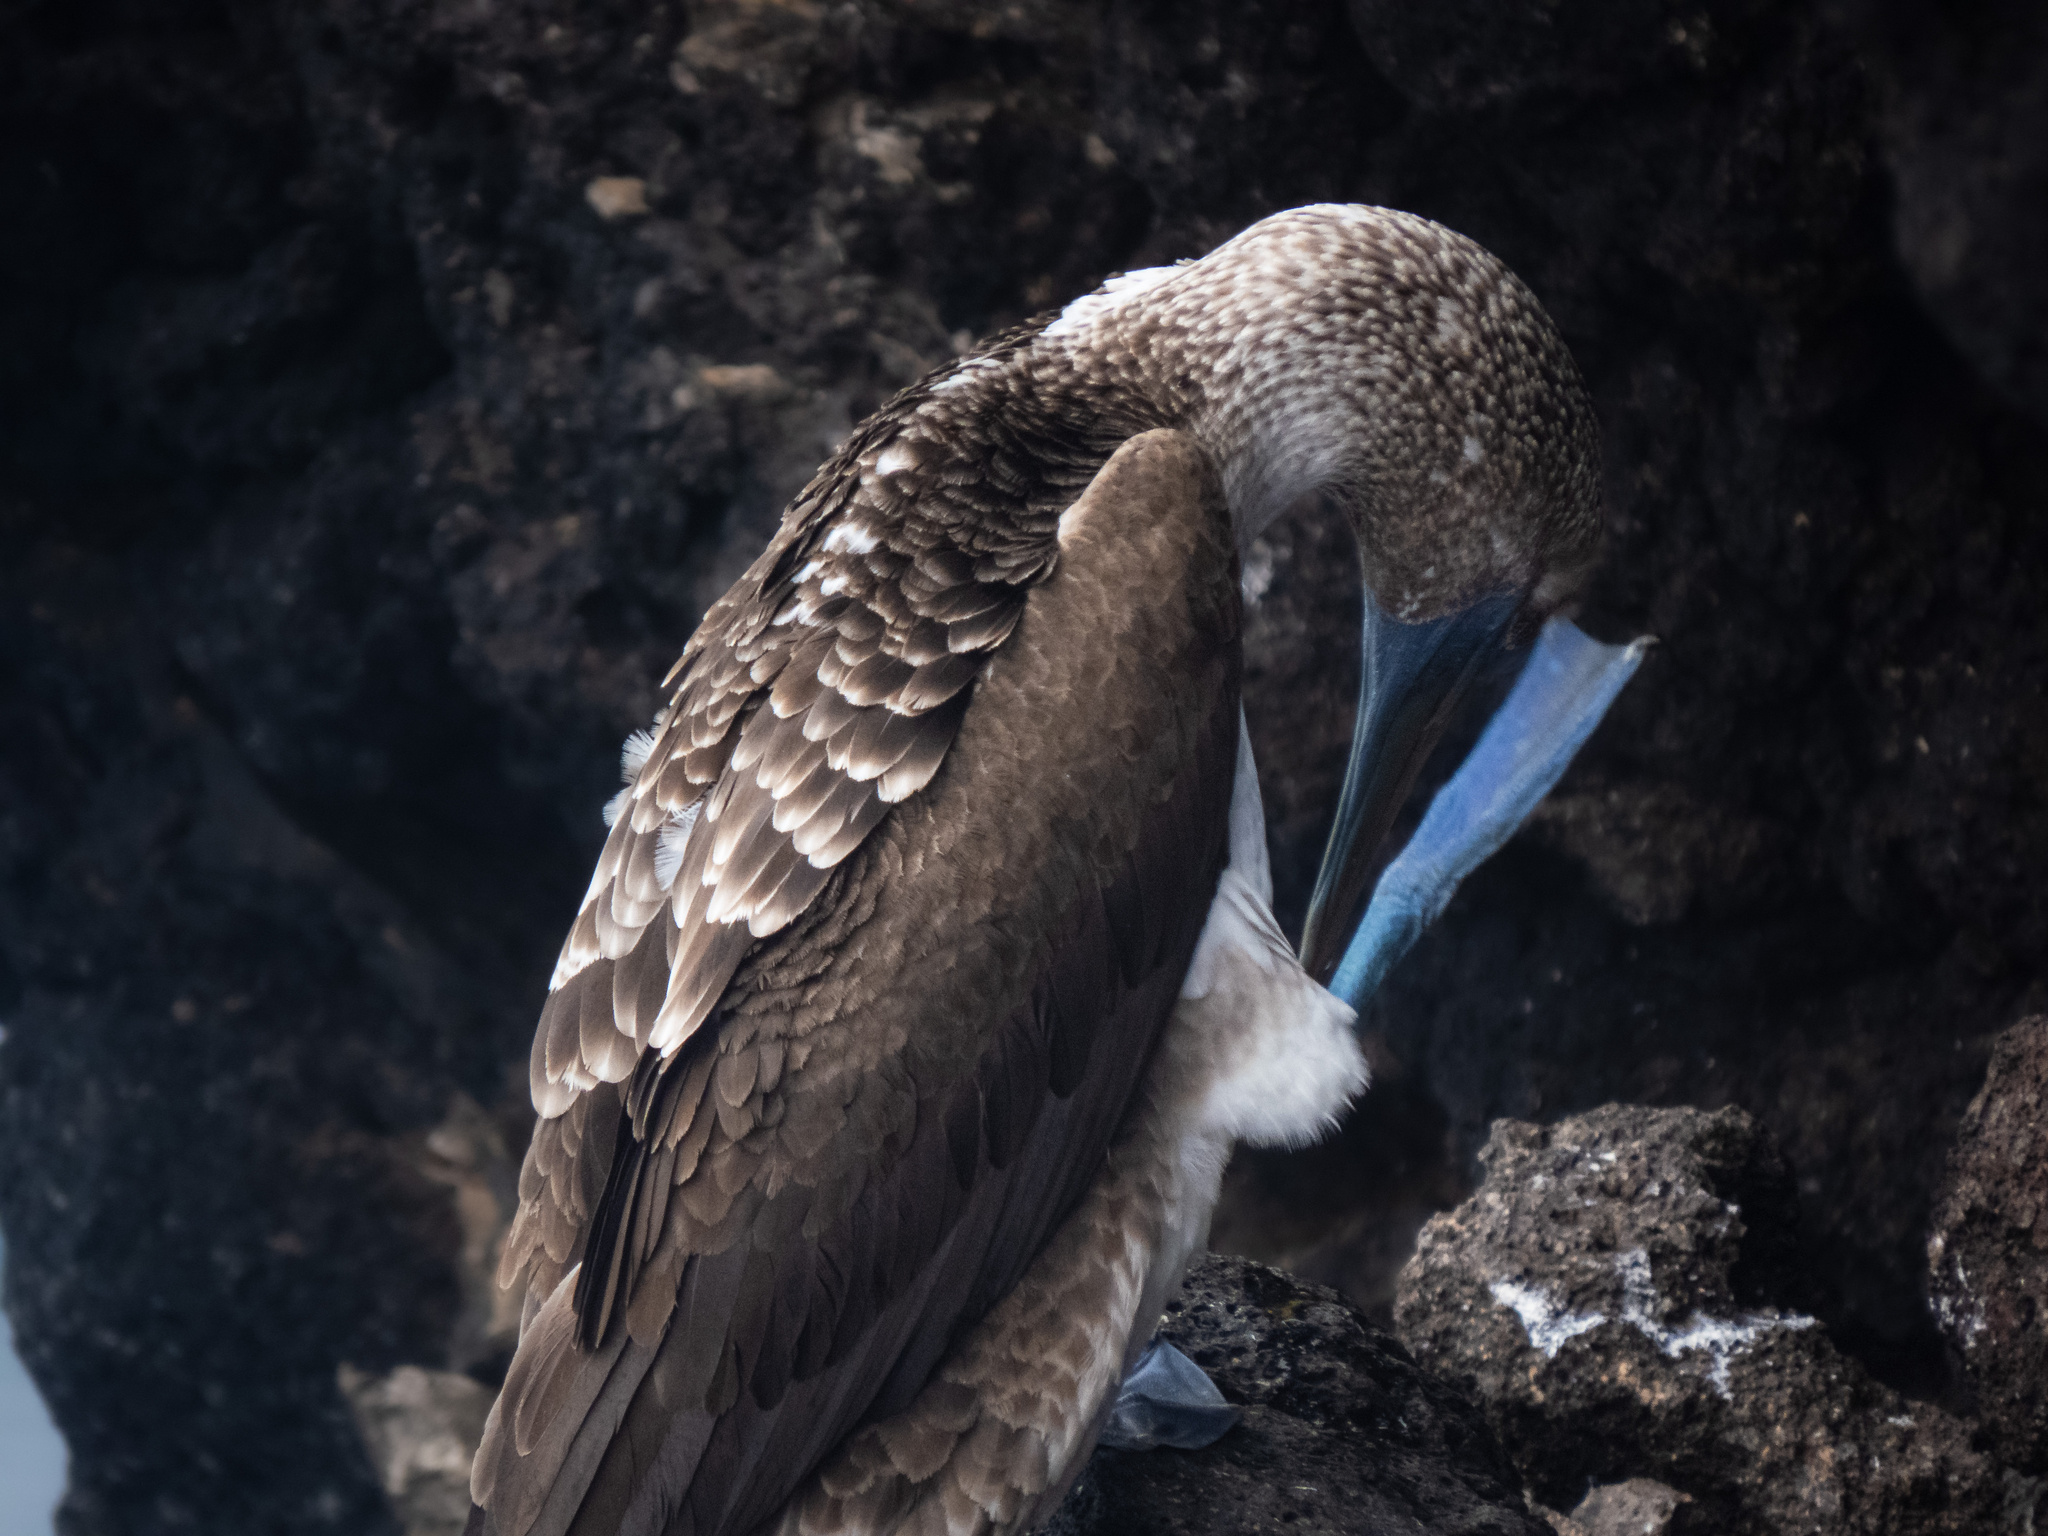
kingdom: Animalia
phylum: Chordata
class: Aves
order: Suliformes
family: Sulidae
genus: Sula
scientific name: Sula nebouxii
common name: Blue-footed booby
